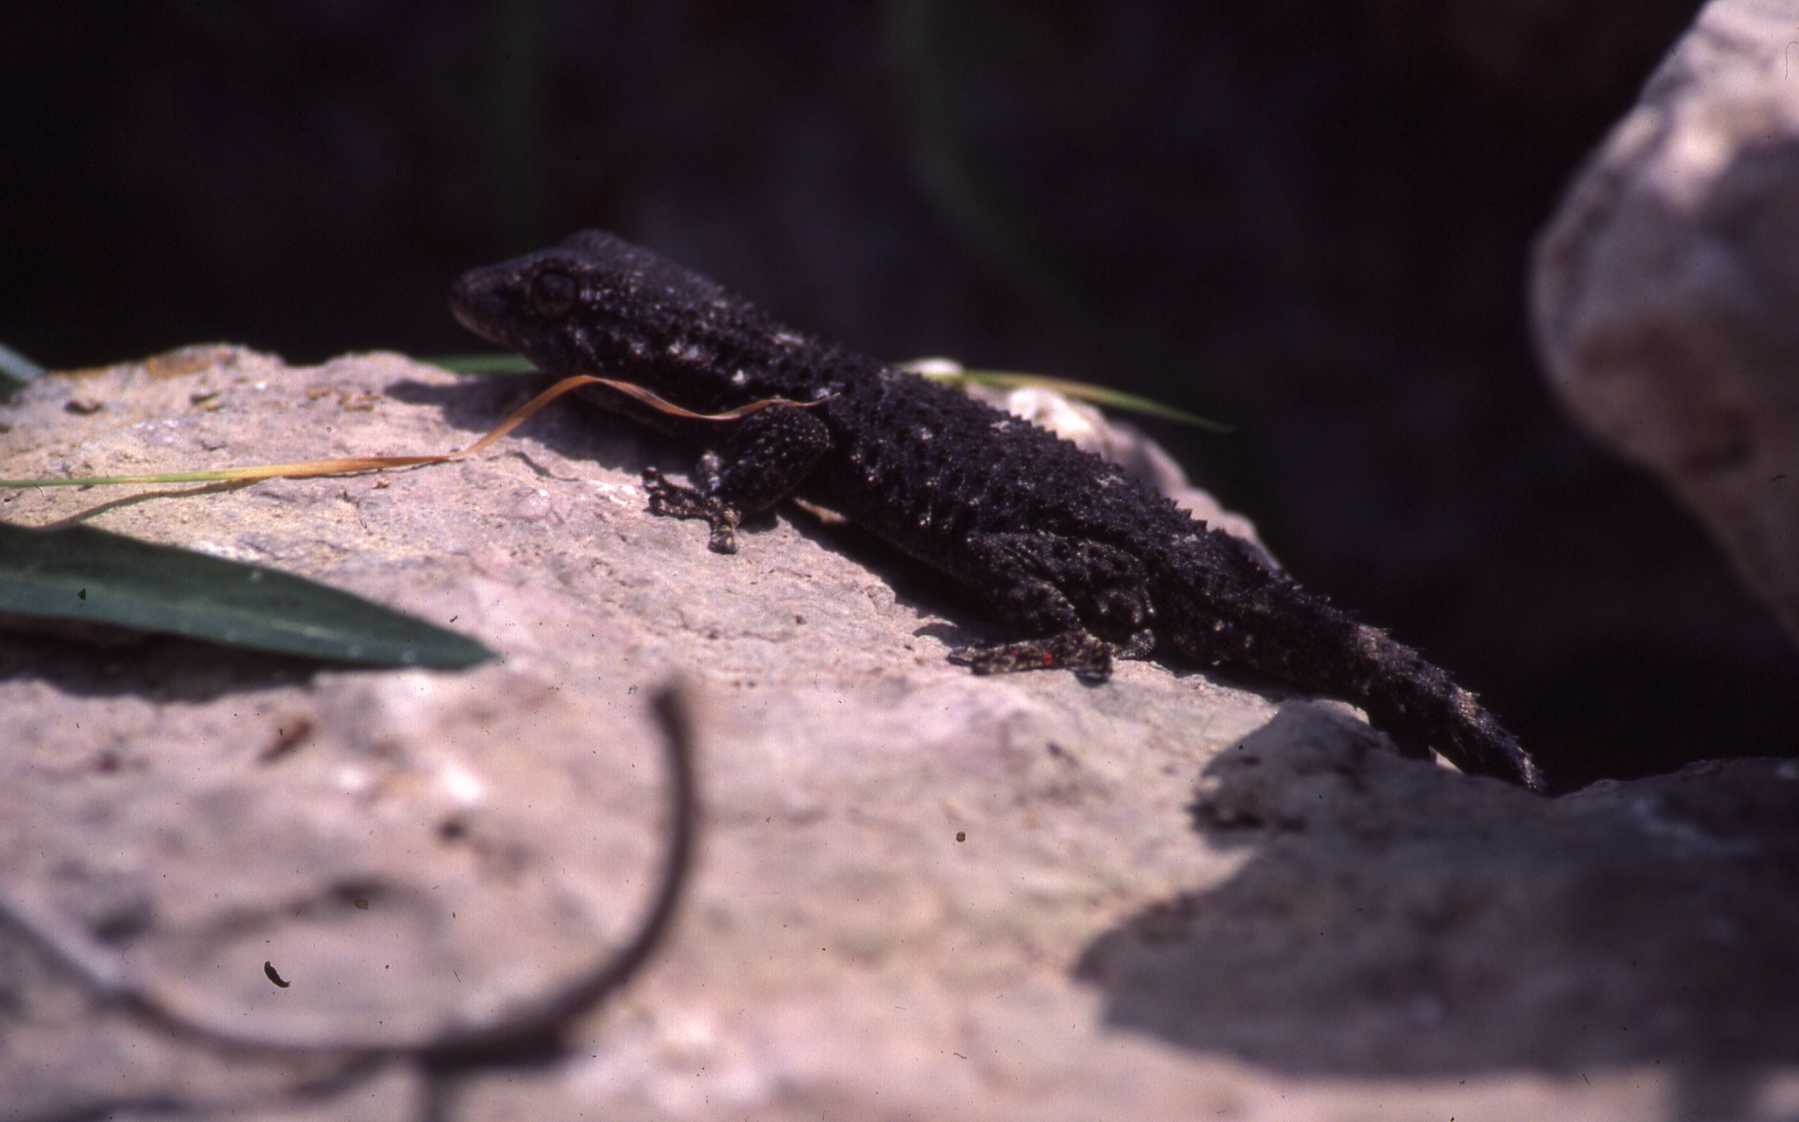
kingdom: Animalia
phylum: Chordata
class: Squamata
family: Phyllodactylidae
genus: Tarentola
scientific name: Tarentola mauritanica
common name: Moorish gecko
